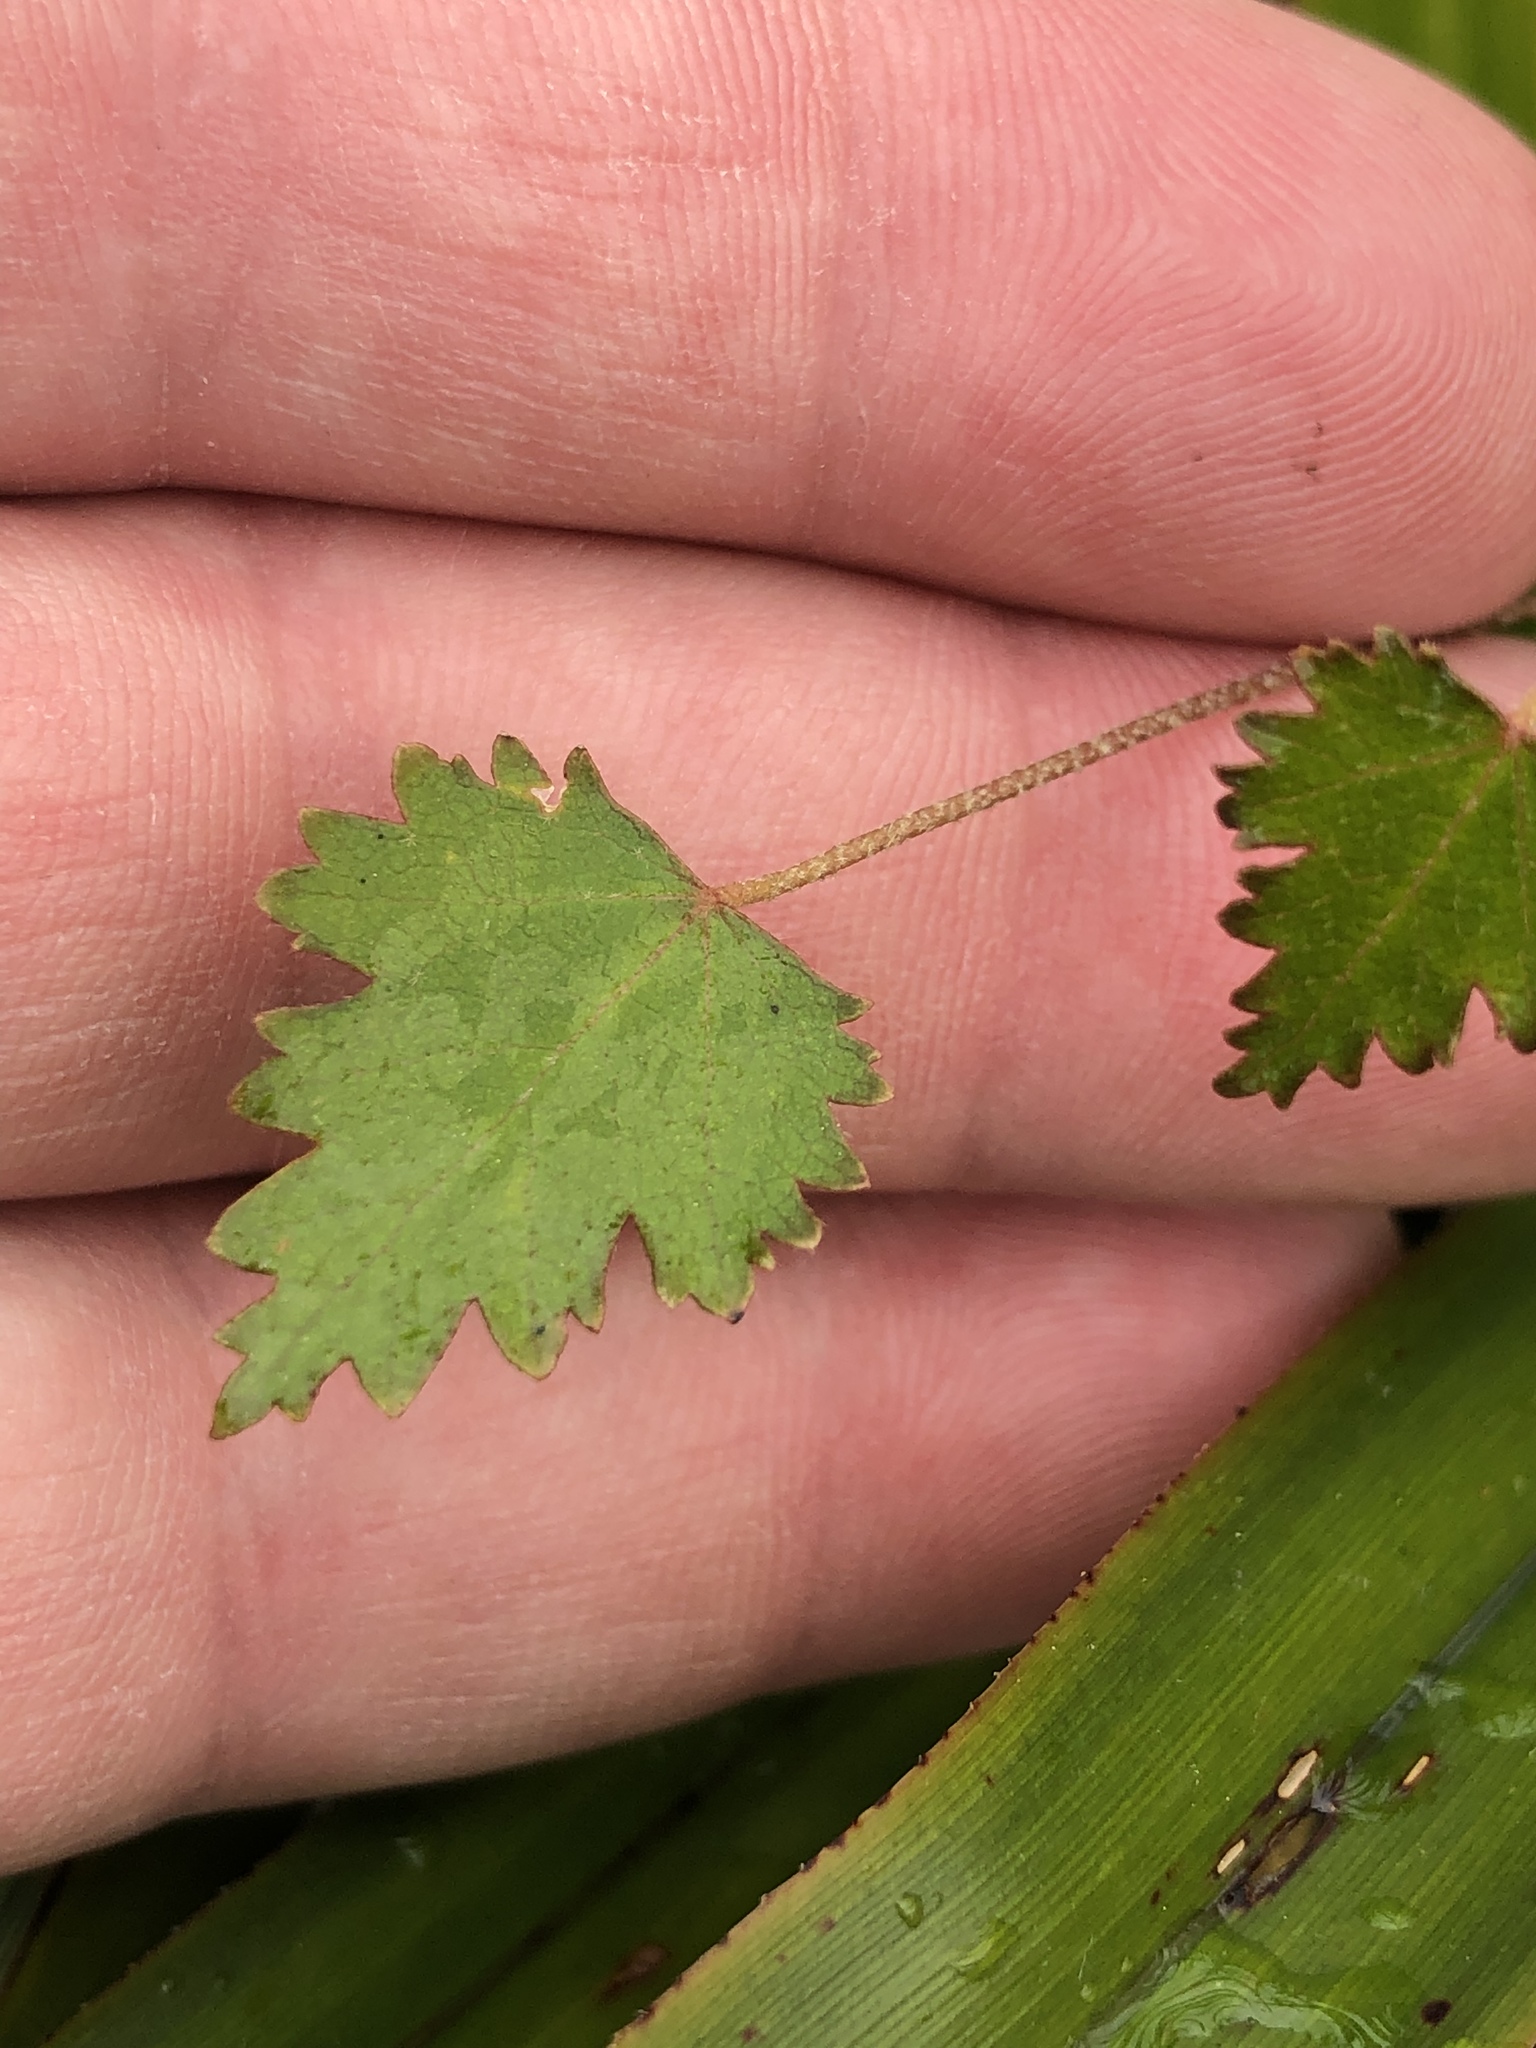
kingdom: Plantae
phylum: Tracheophyta
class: Magnoliopsida
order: Malvales
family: Malvaceae
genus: Plagianthus
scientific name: Plagianthus regius
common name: Manatu
